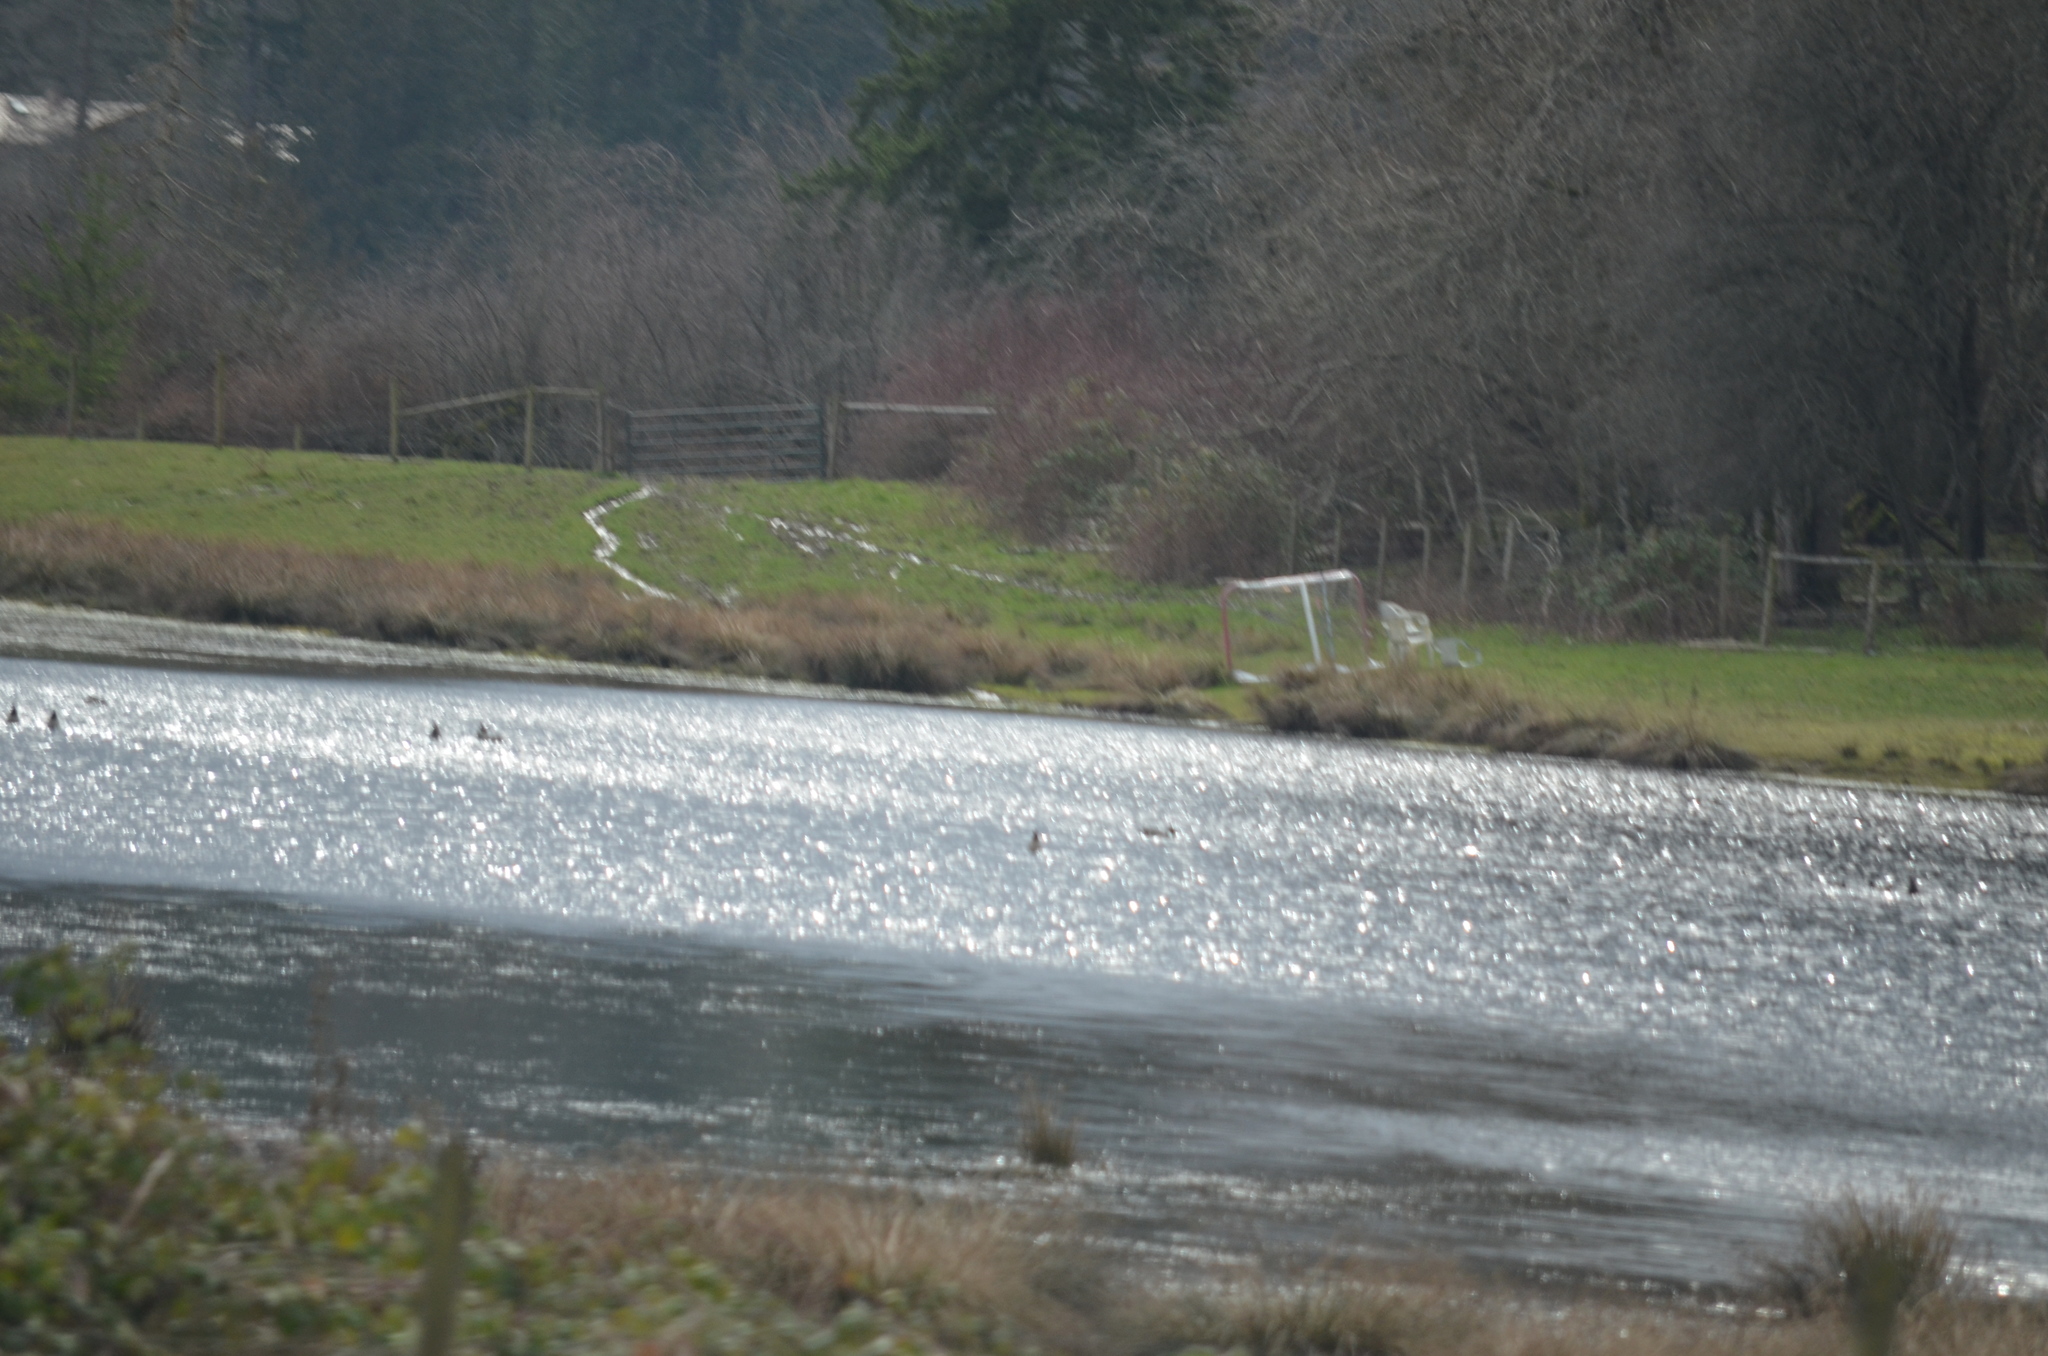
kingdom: Animalia
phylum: Chordata
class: Aves
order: Anseriformes
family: Anatidae
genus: Anas
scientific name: Anas acuta
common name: Northern pintail
